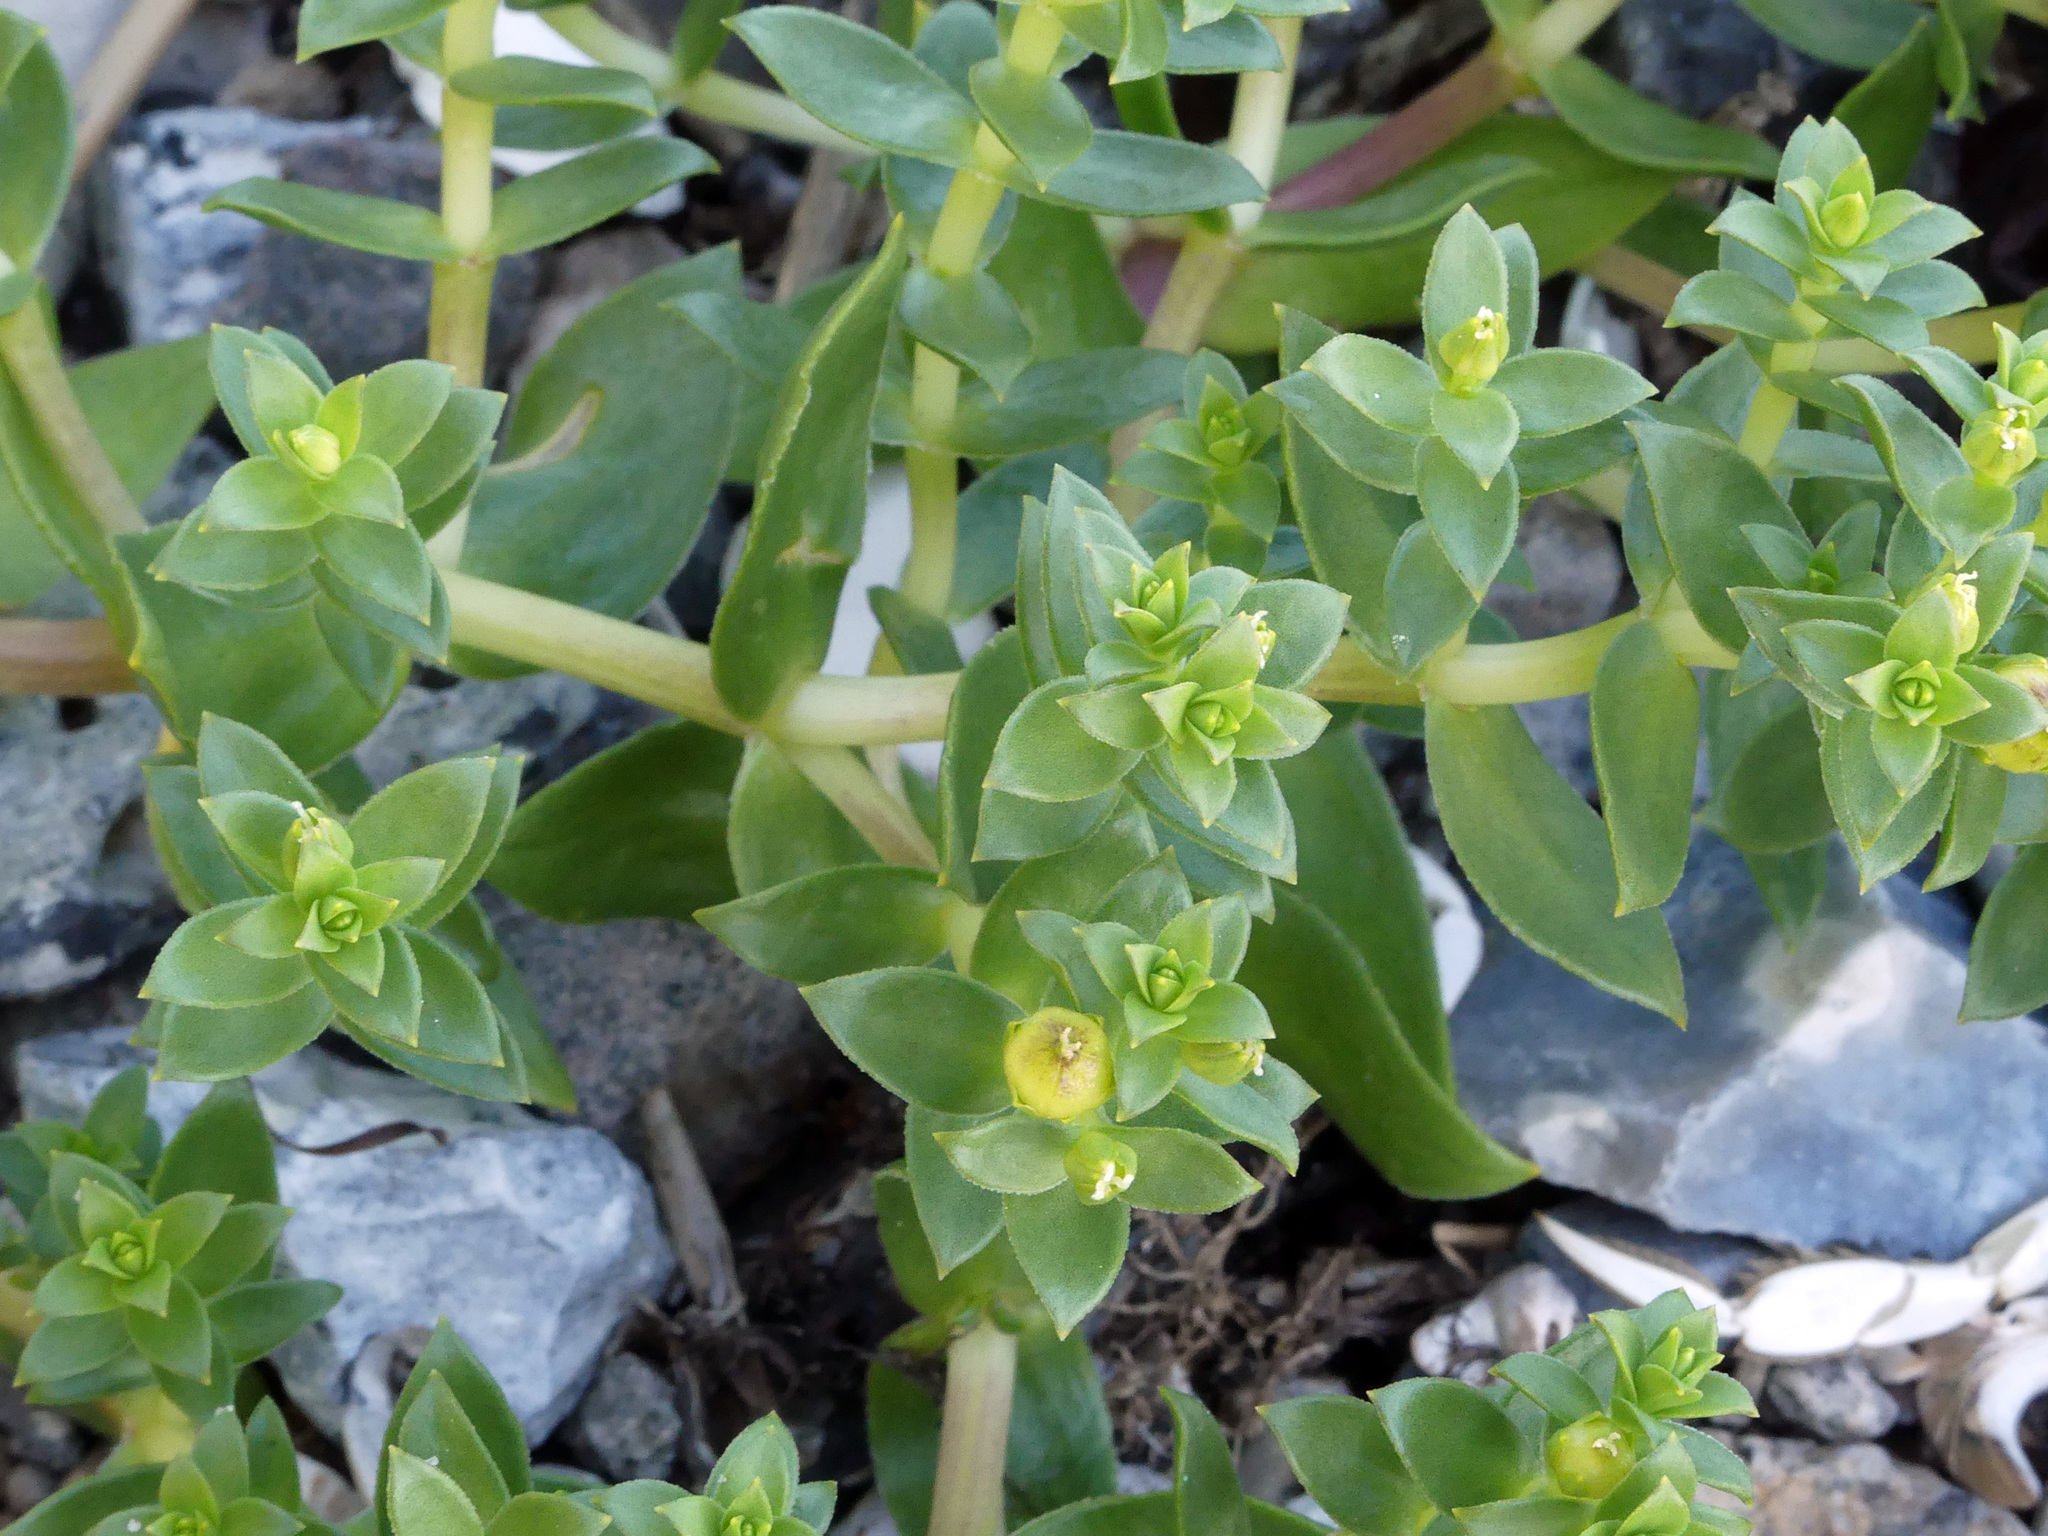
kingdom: Plantae
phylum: Tracheophyta
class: Magnoliopsida
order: Caryophyllales
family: Caryophyllaceae
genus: Honckenya
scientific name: Honckenya peploides
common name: Sea sandwort
